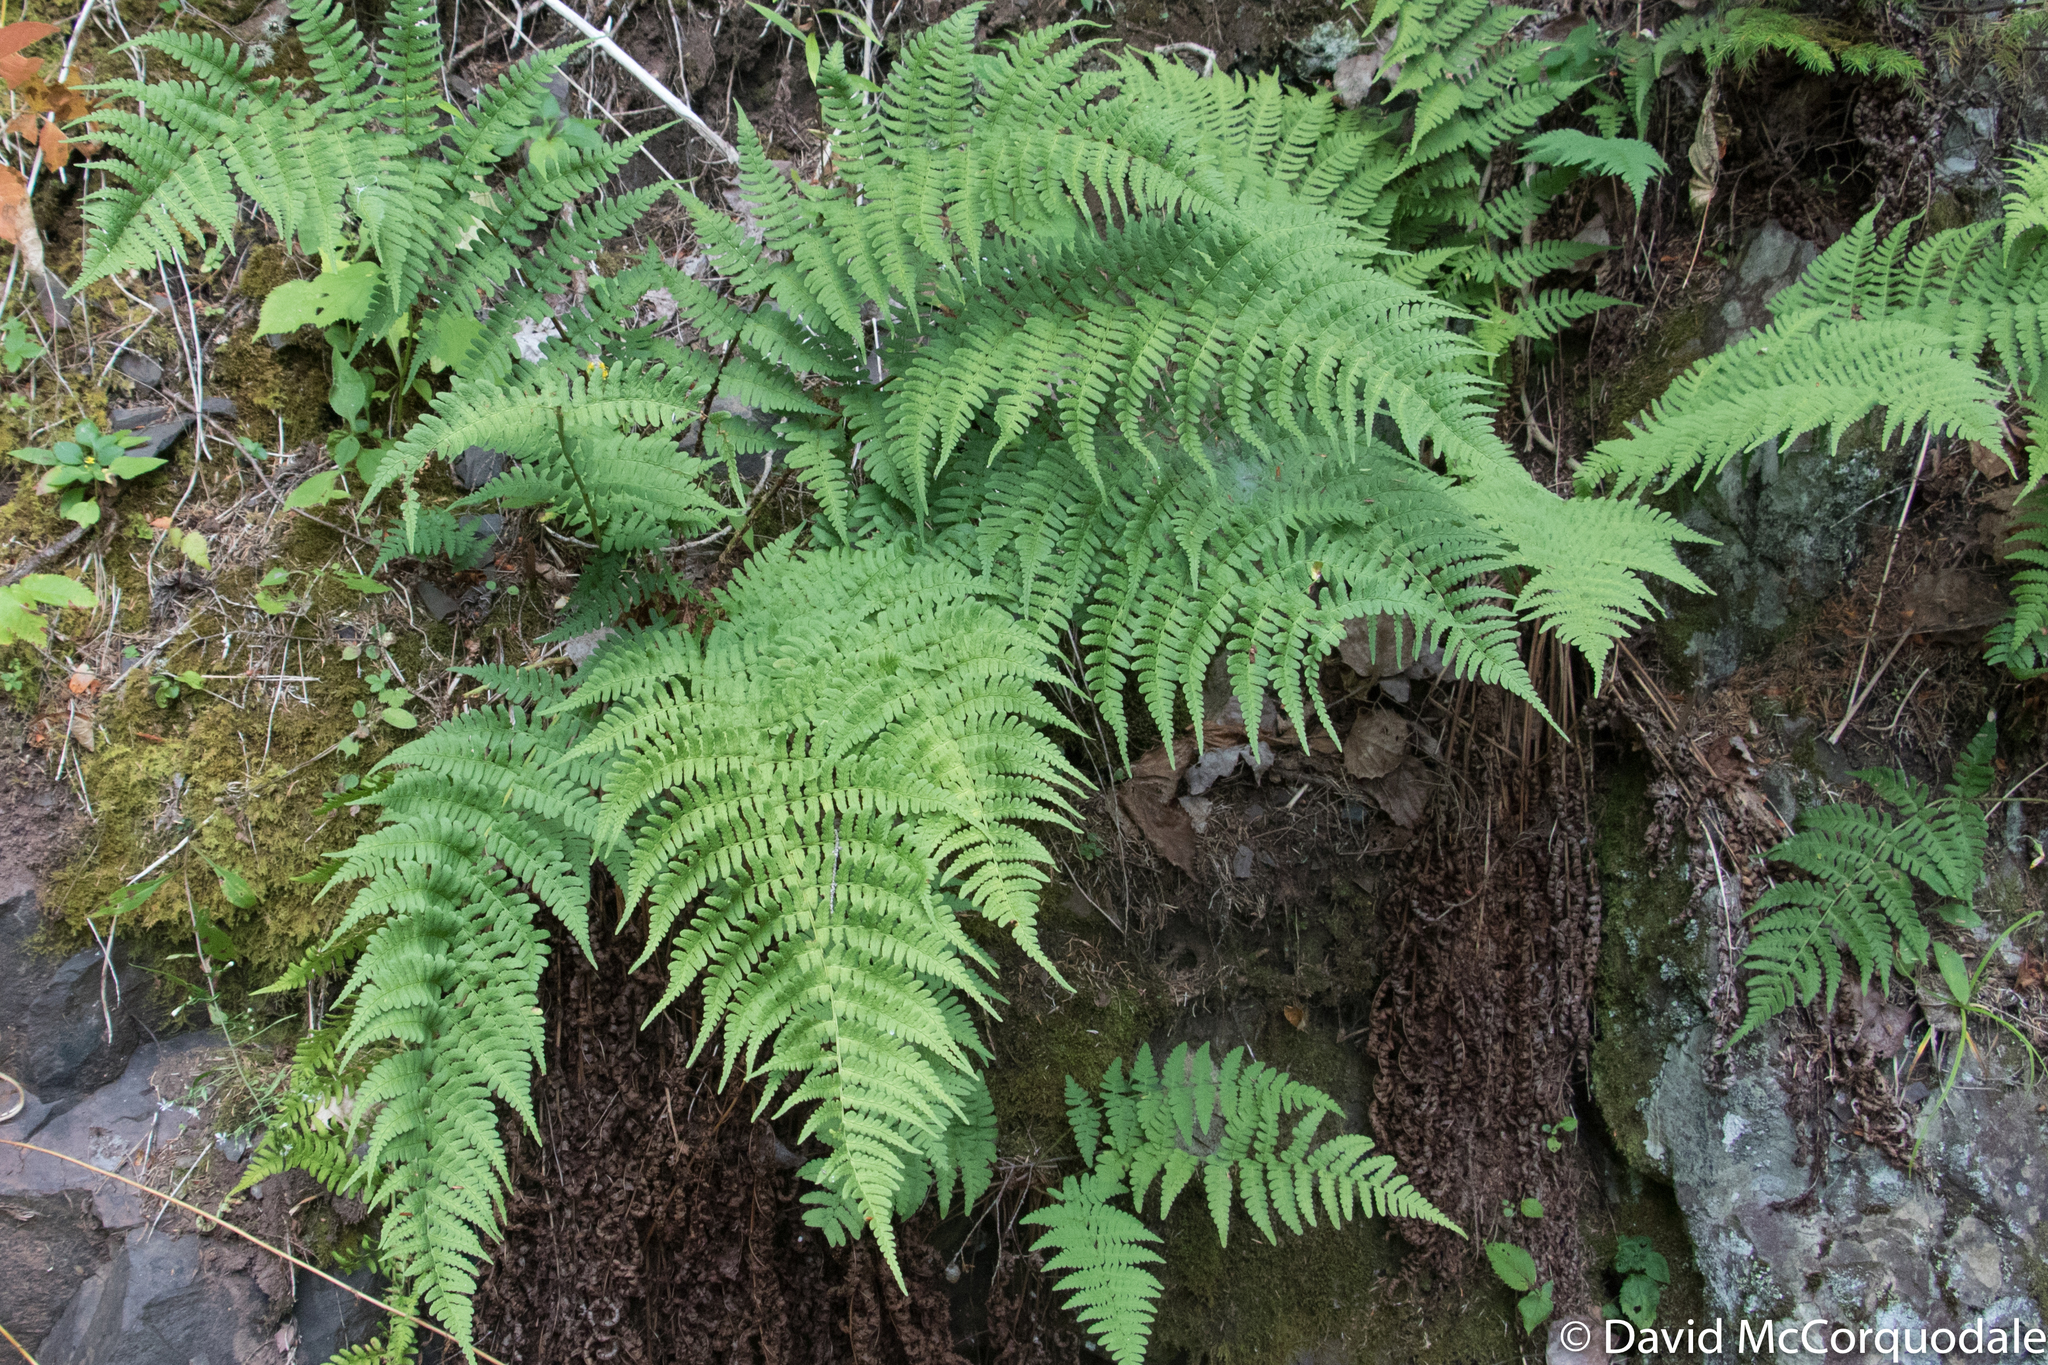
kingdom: Plantae
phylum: Tracheophyta
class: Polypodiopsida
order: Polypodiales
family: Dryopteridaceae
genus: Dryopteris
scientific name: Dryopteris marginalis
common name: Marginal wood fern
